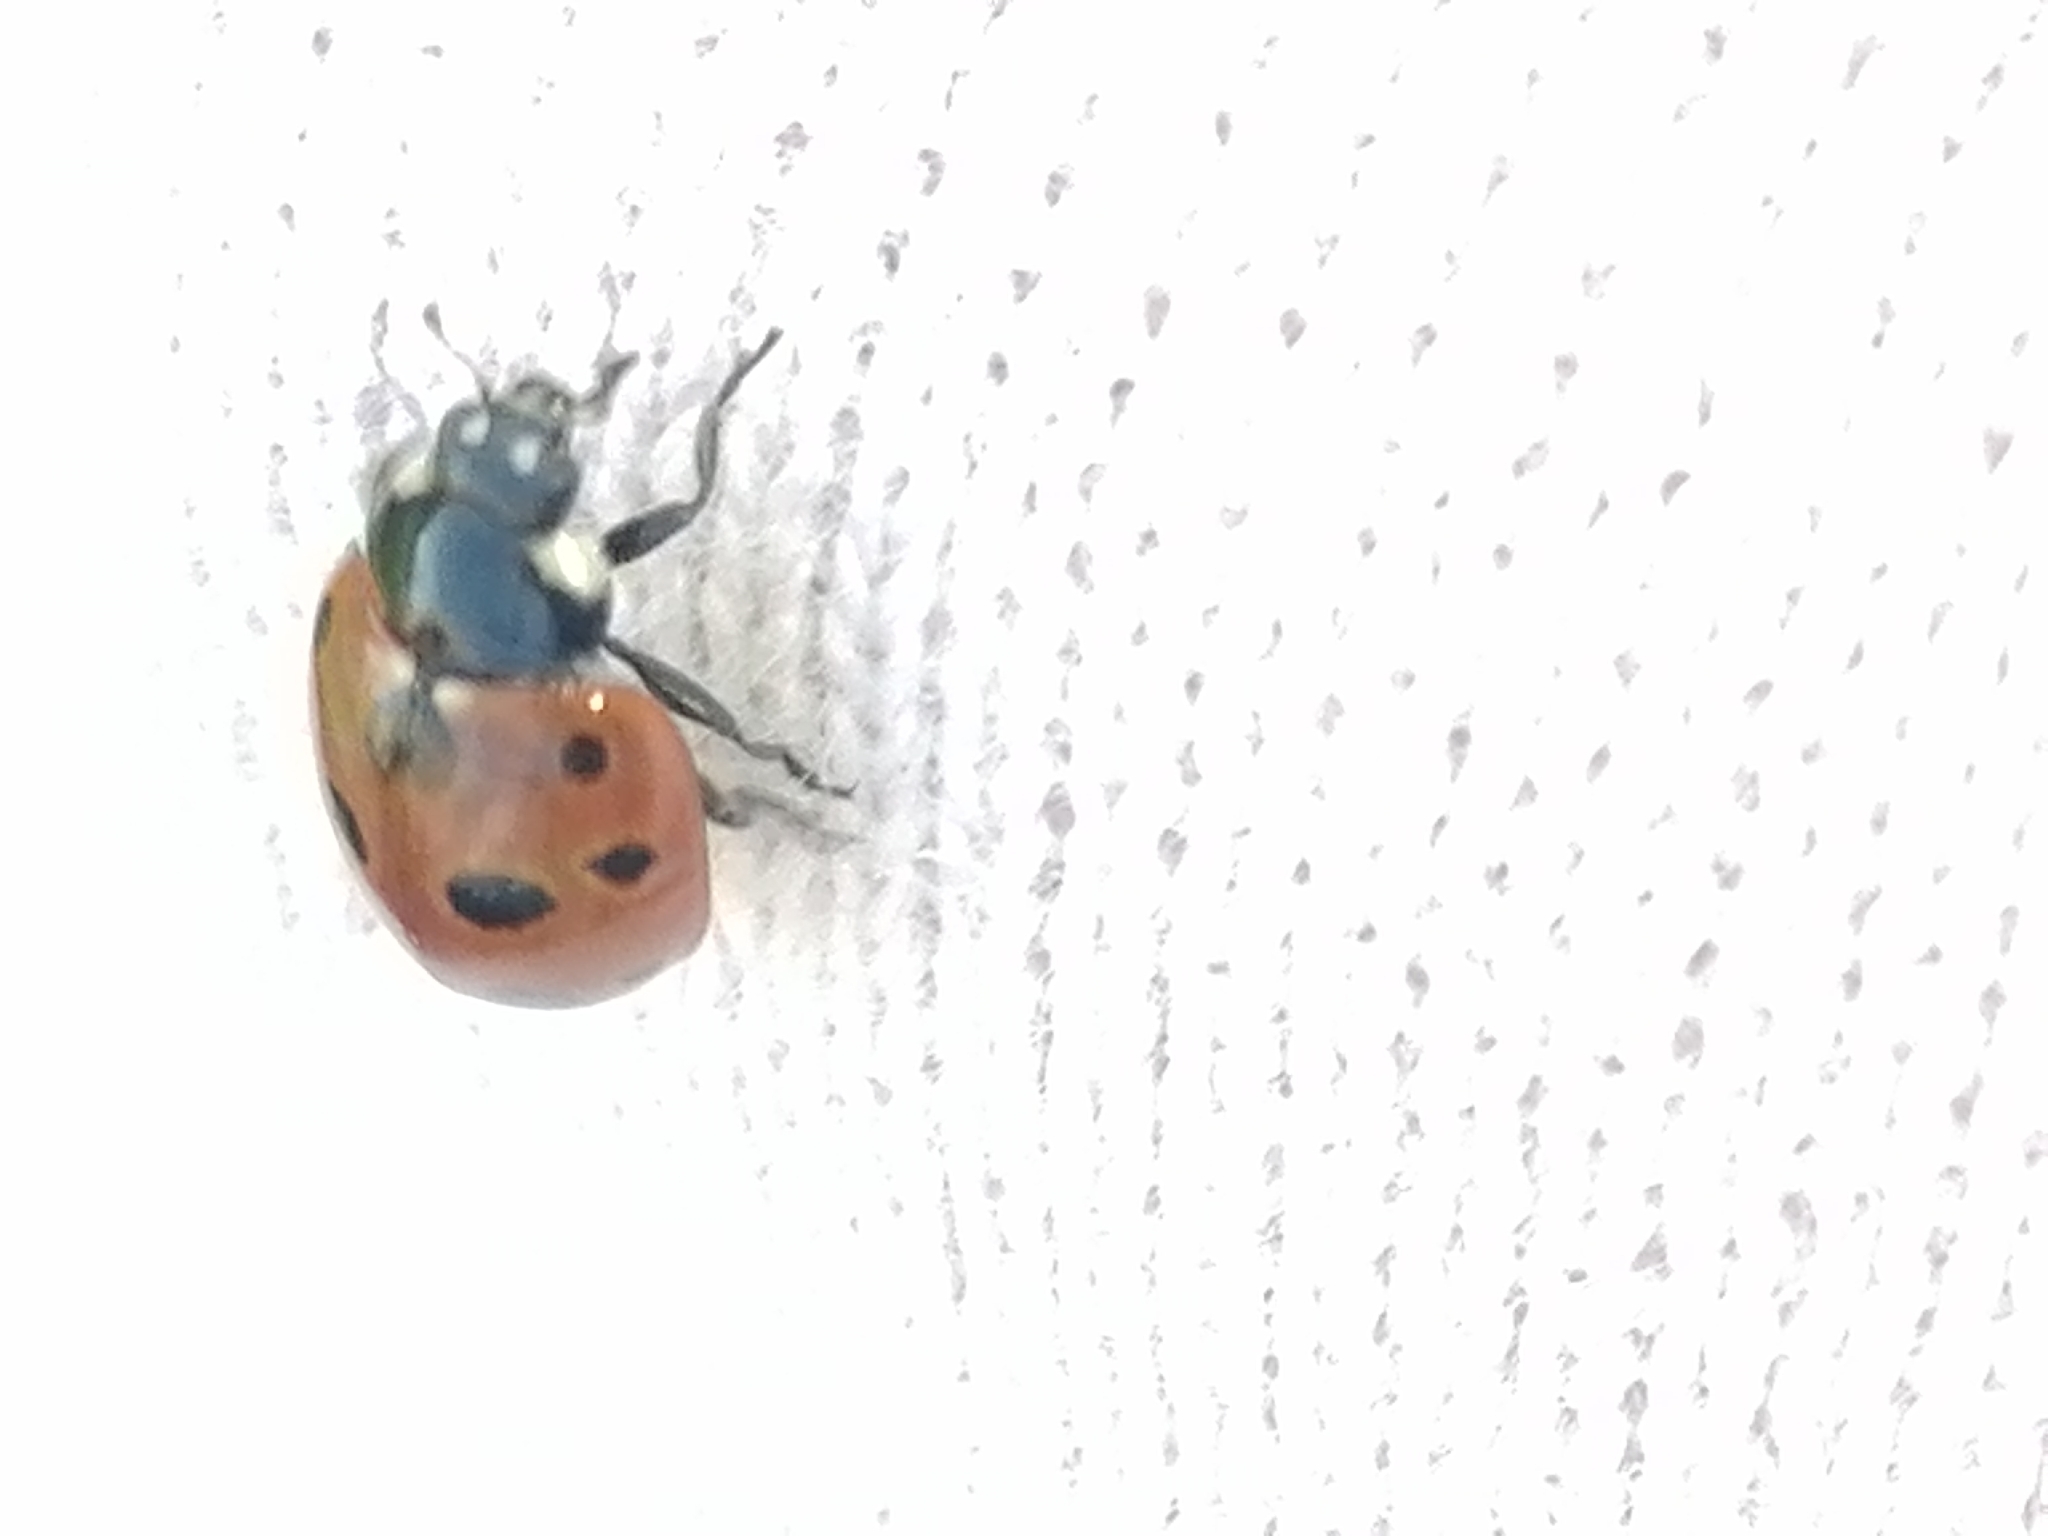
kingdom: Animalia
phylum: Arthropoda
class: Insecta
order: Coleoptera
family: Coccinellidae
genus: Coccinella
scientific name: Coccinella undecimpunctata
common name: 11-spot ladybird
